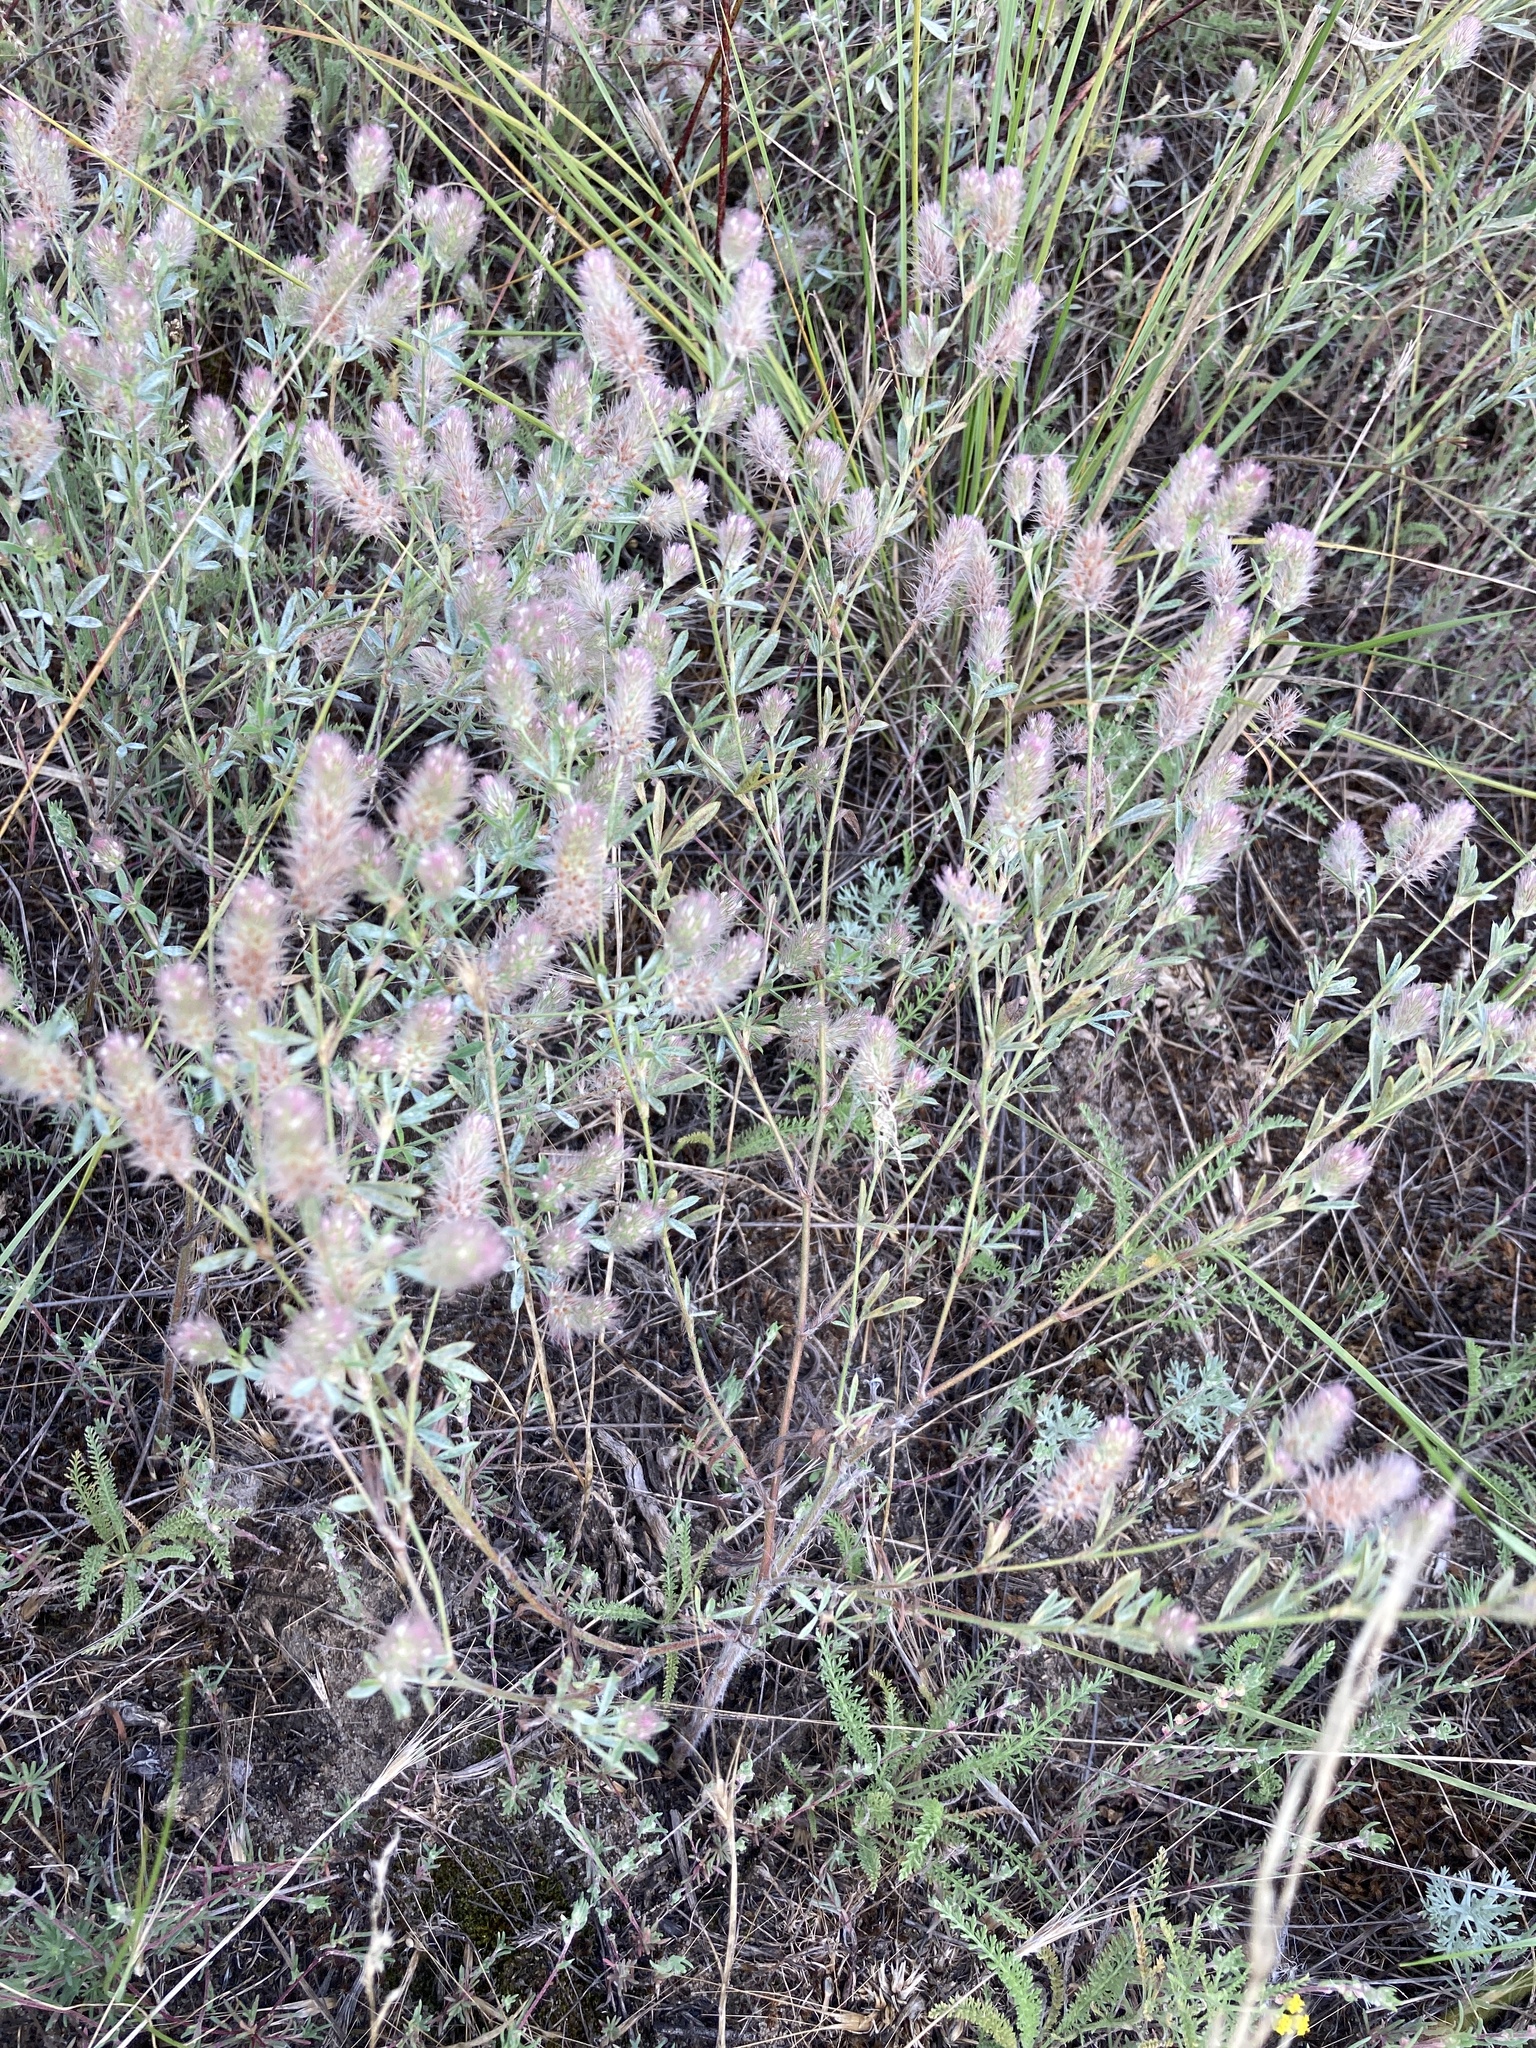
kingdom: Plantae
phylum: Tracheophyta
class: Magnoliopsida
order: Fabales
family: Fabaceae
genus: Trifolium
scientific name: Trifolium arvense
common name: Hare's-foot clover
